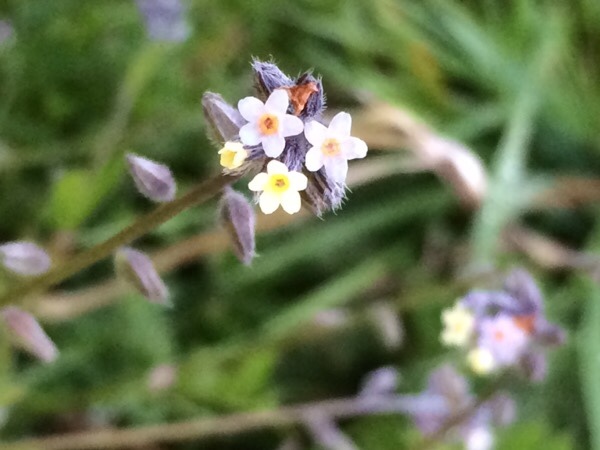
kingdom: Plantae
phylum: Tracheophyta
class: Magnoliopsida
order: Boraginales
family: Boraginaceae
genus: Myosotis
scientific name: Myosotis discolor
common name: Changing forget-me-not
